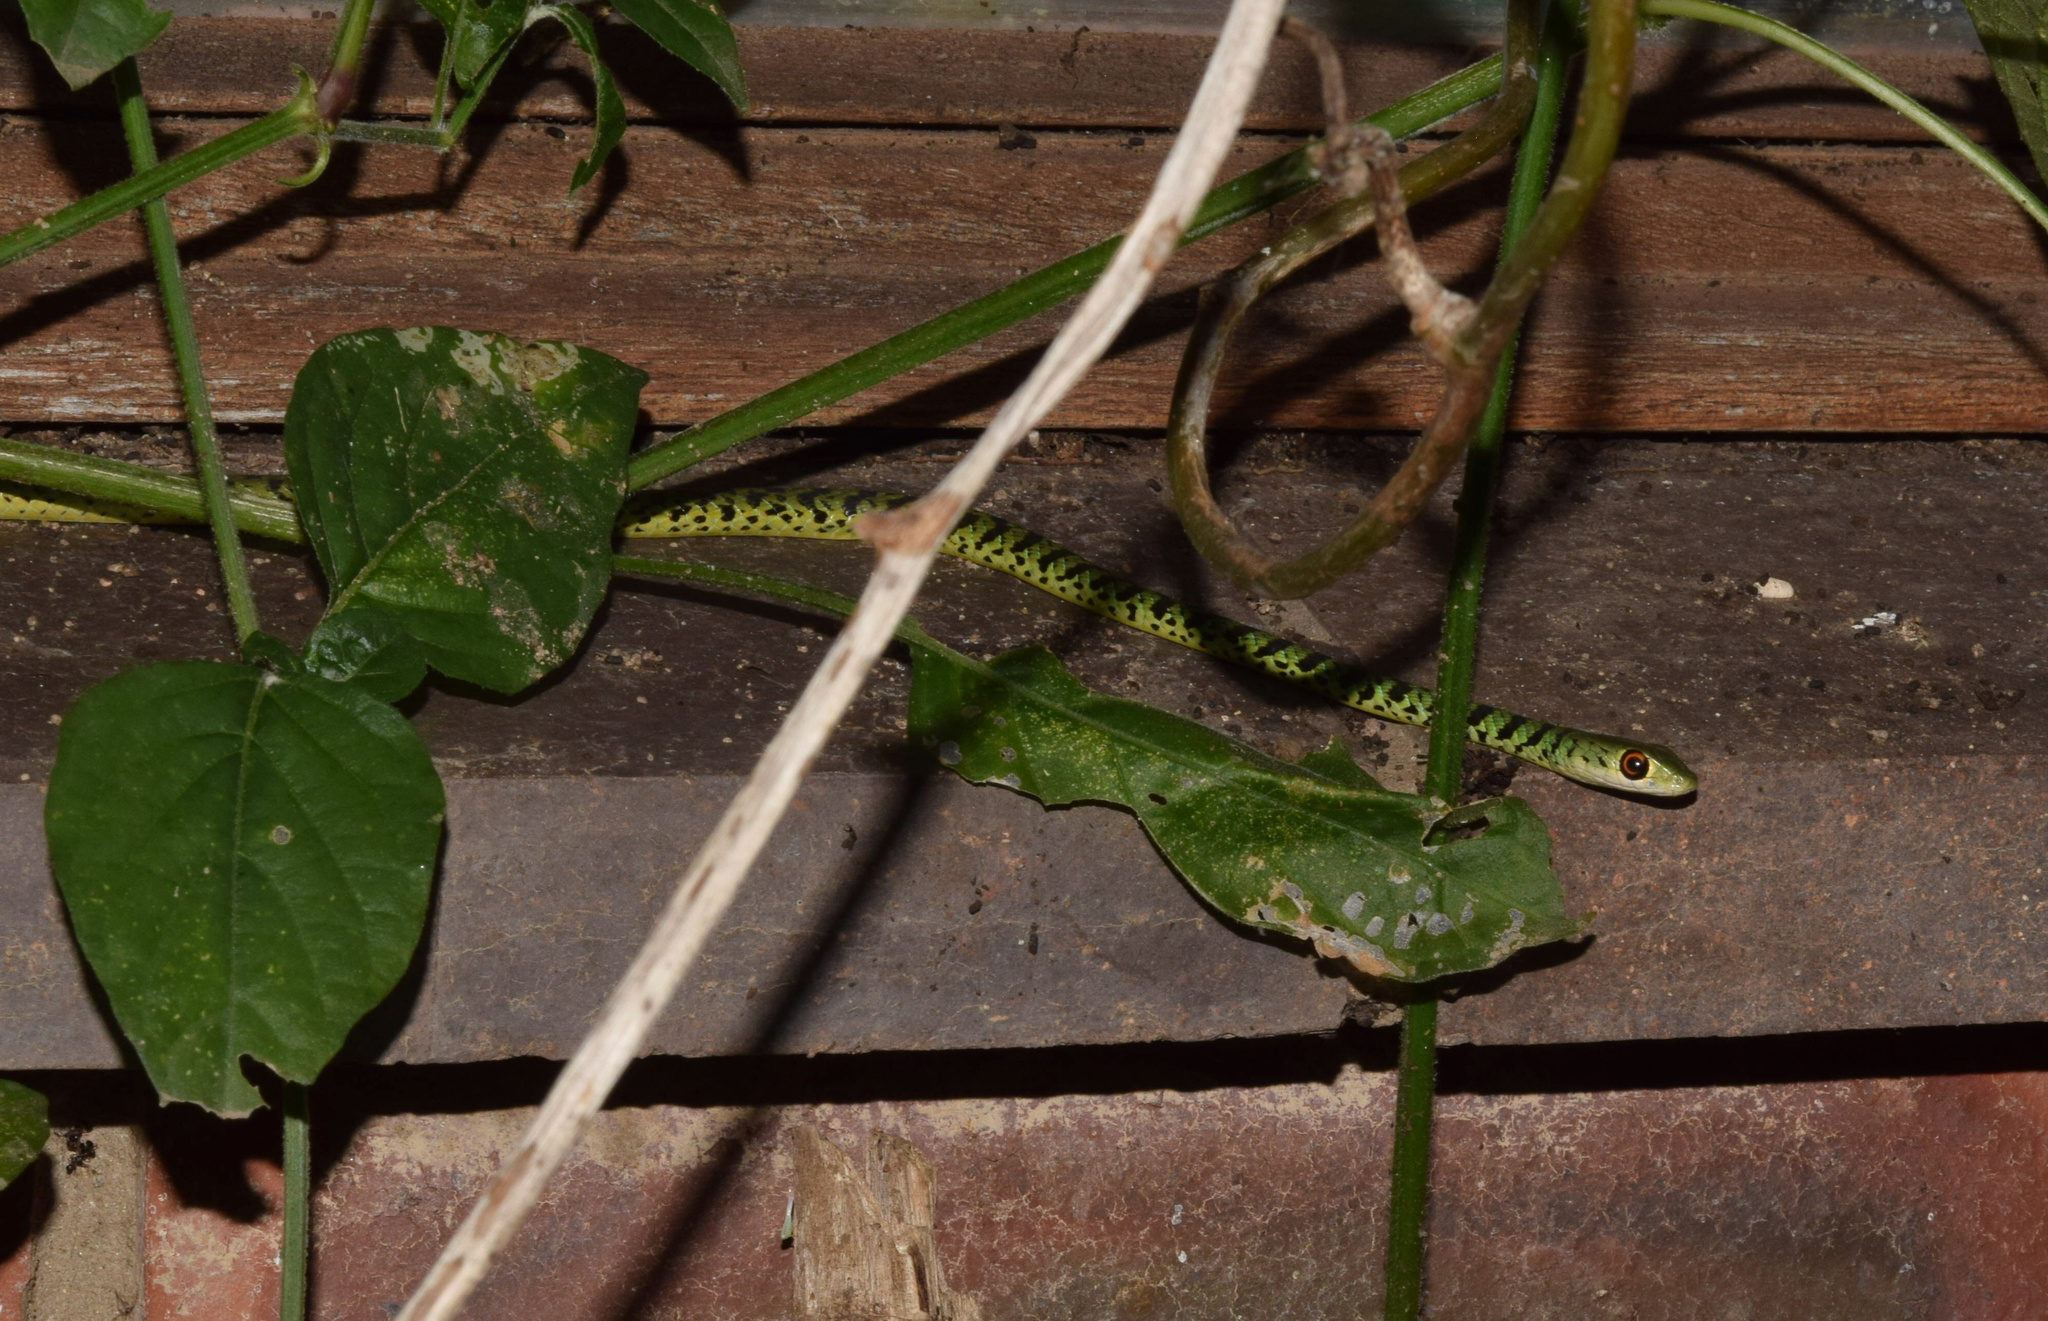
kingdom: Animalia
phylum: Chordata
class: Squamata
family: Colubridae
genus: Philothamnus
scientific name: Philothamnus semivariegatus
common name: Spotted bush snake
